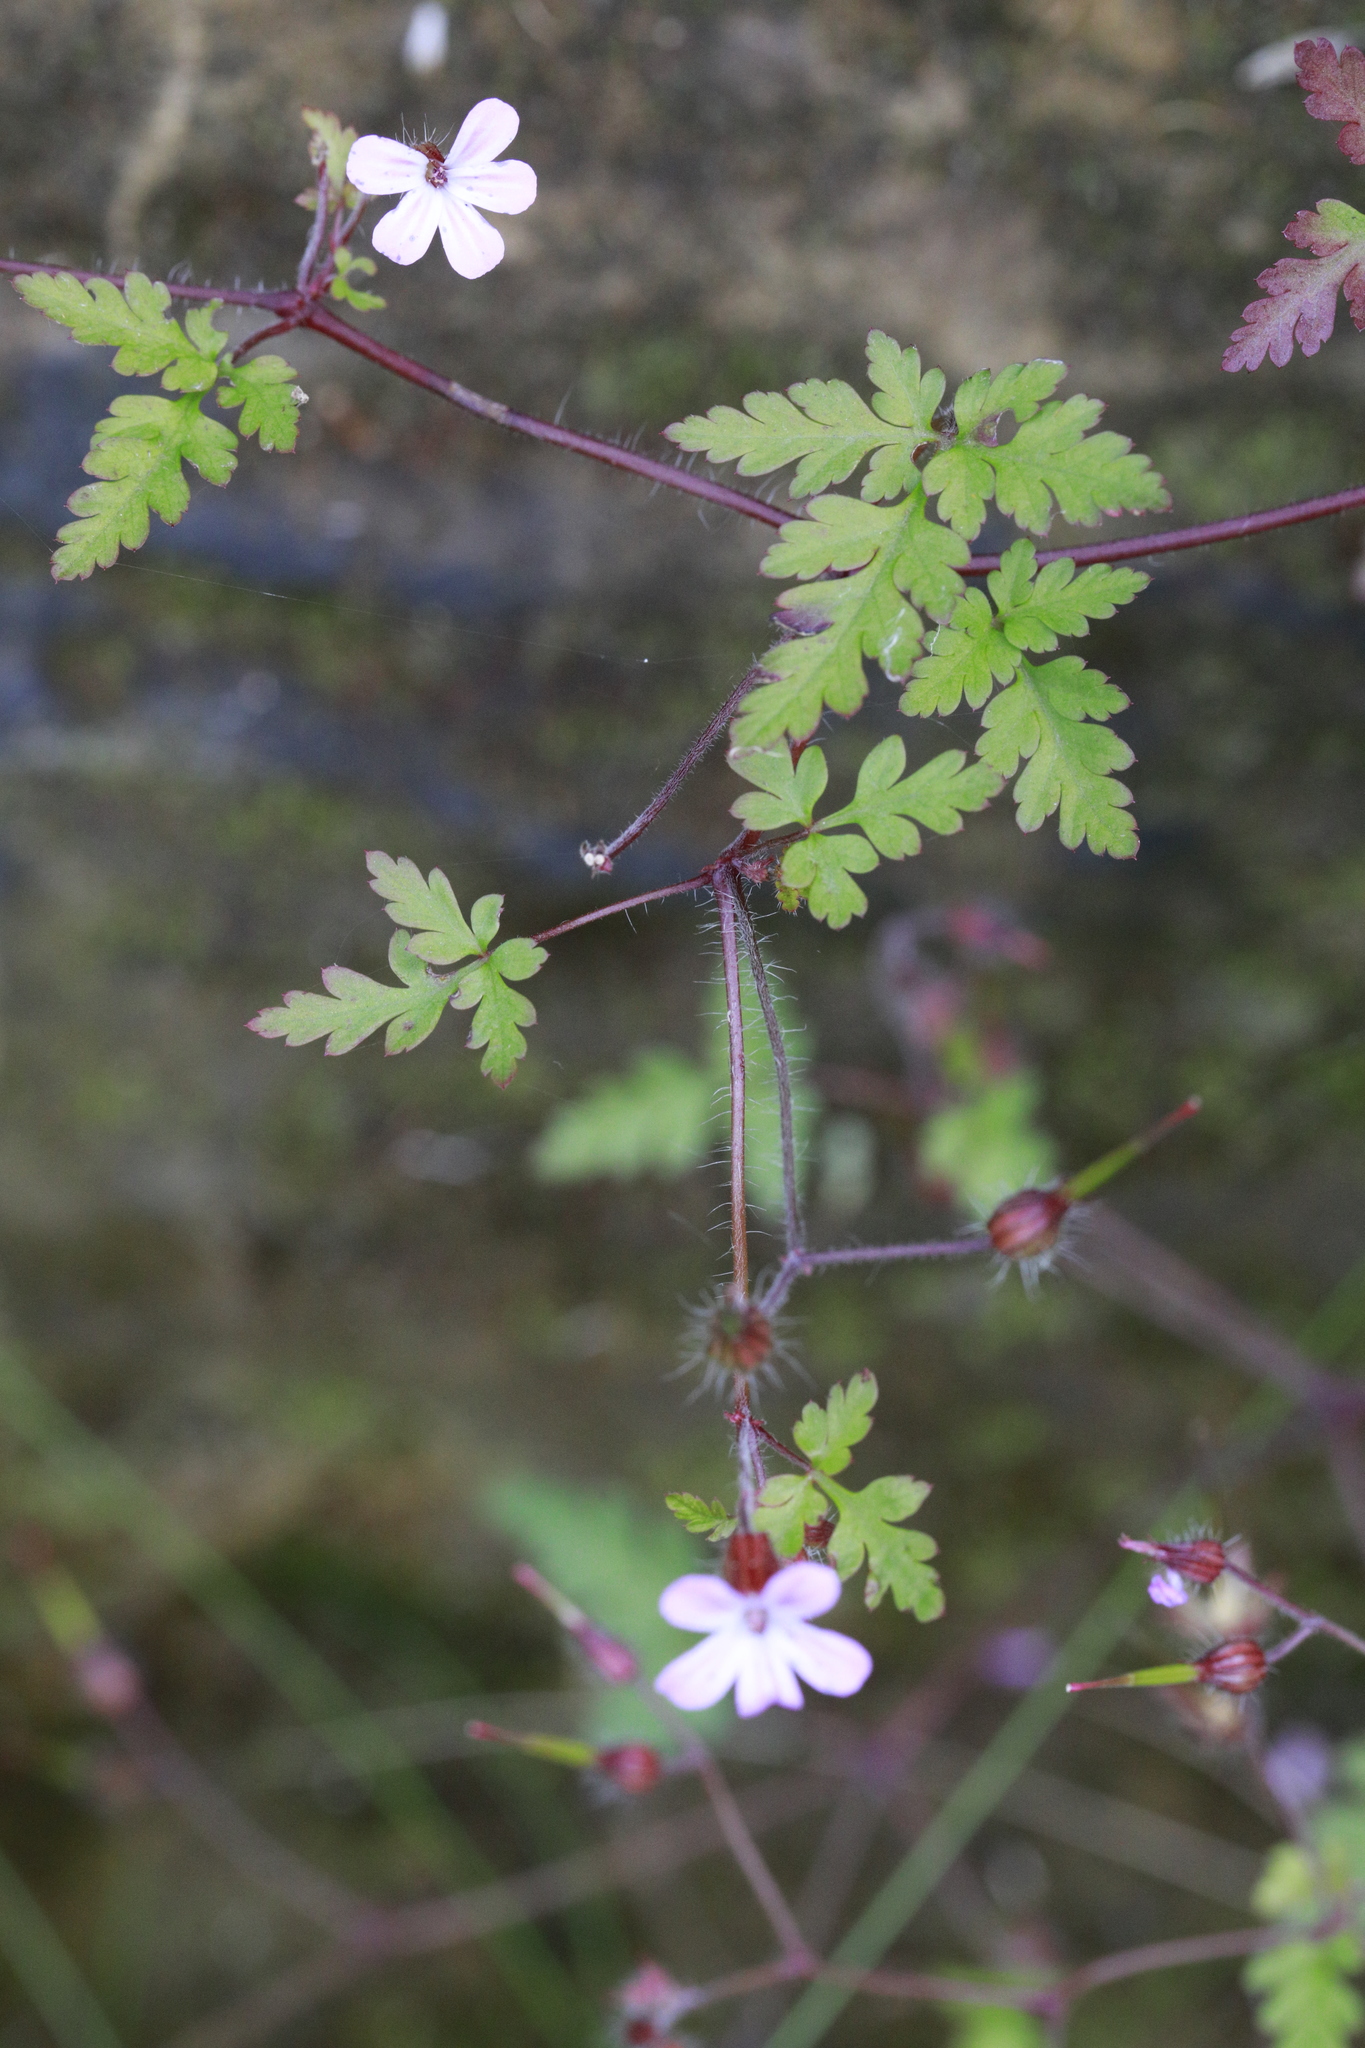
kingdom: Plantae
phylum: Tracheophyta
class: Magnoliopsida
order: Geraniales
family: Geraniaceae
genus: Geranium
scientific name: Geranium robertianum
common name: Herb-robert
